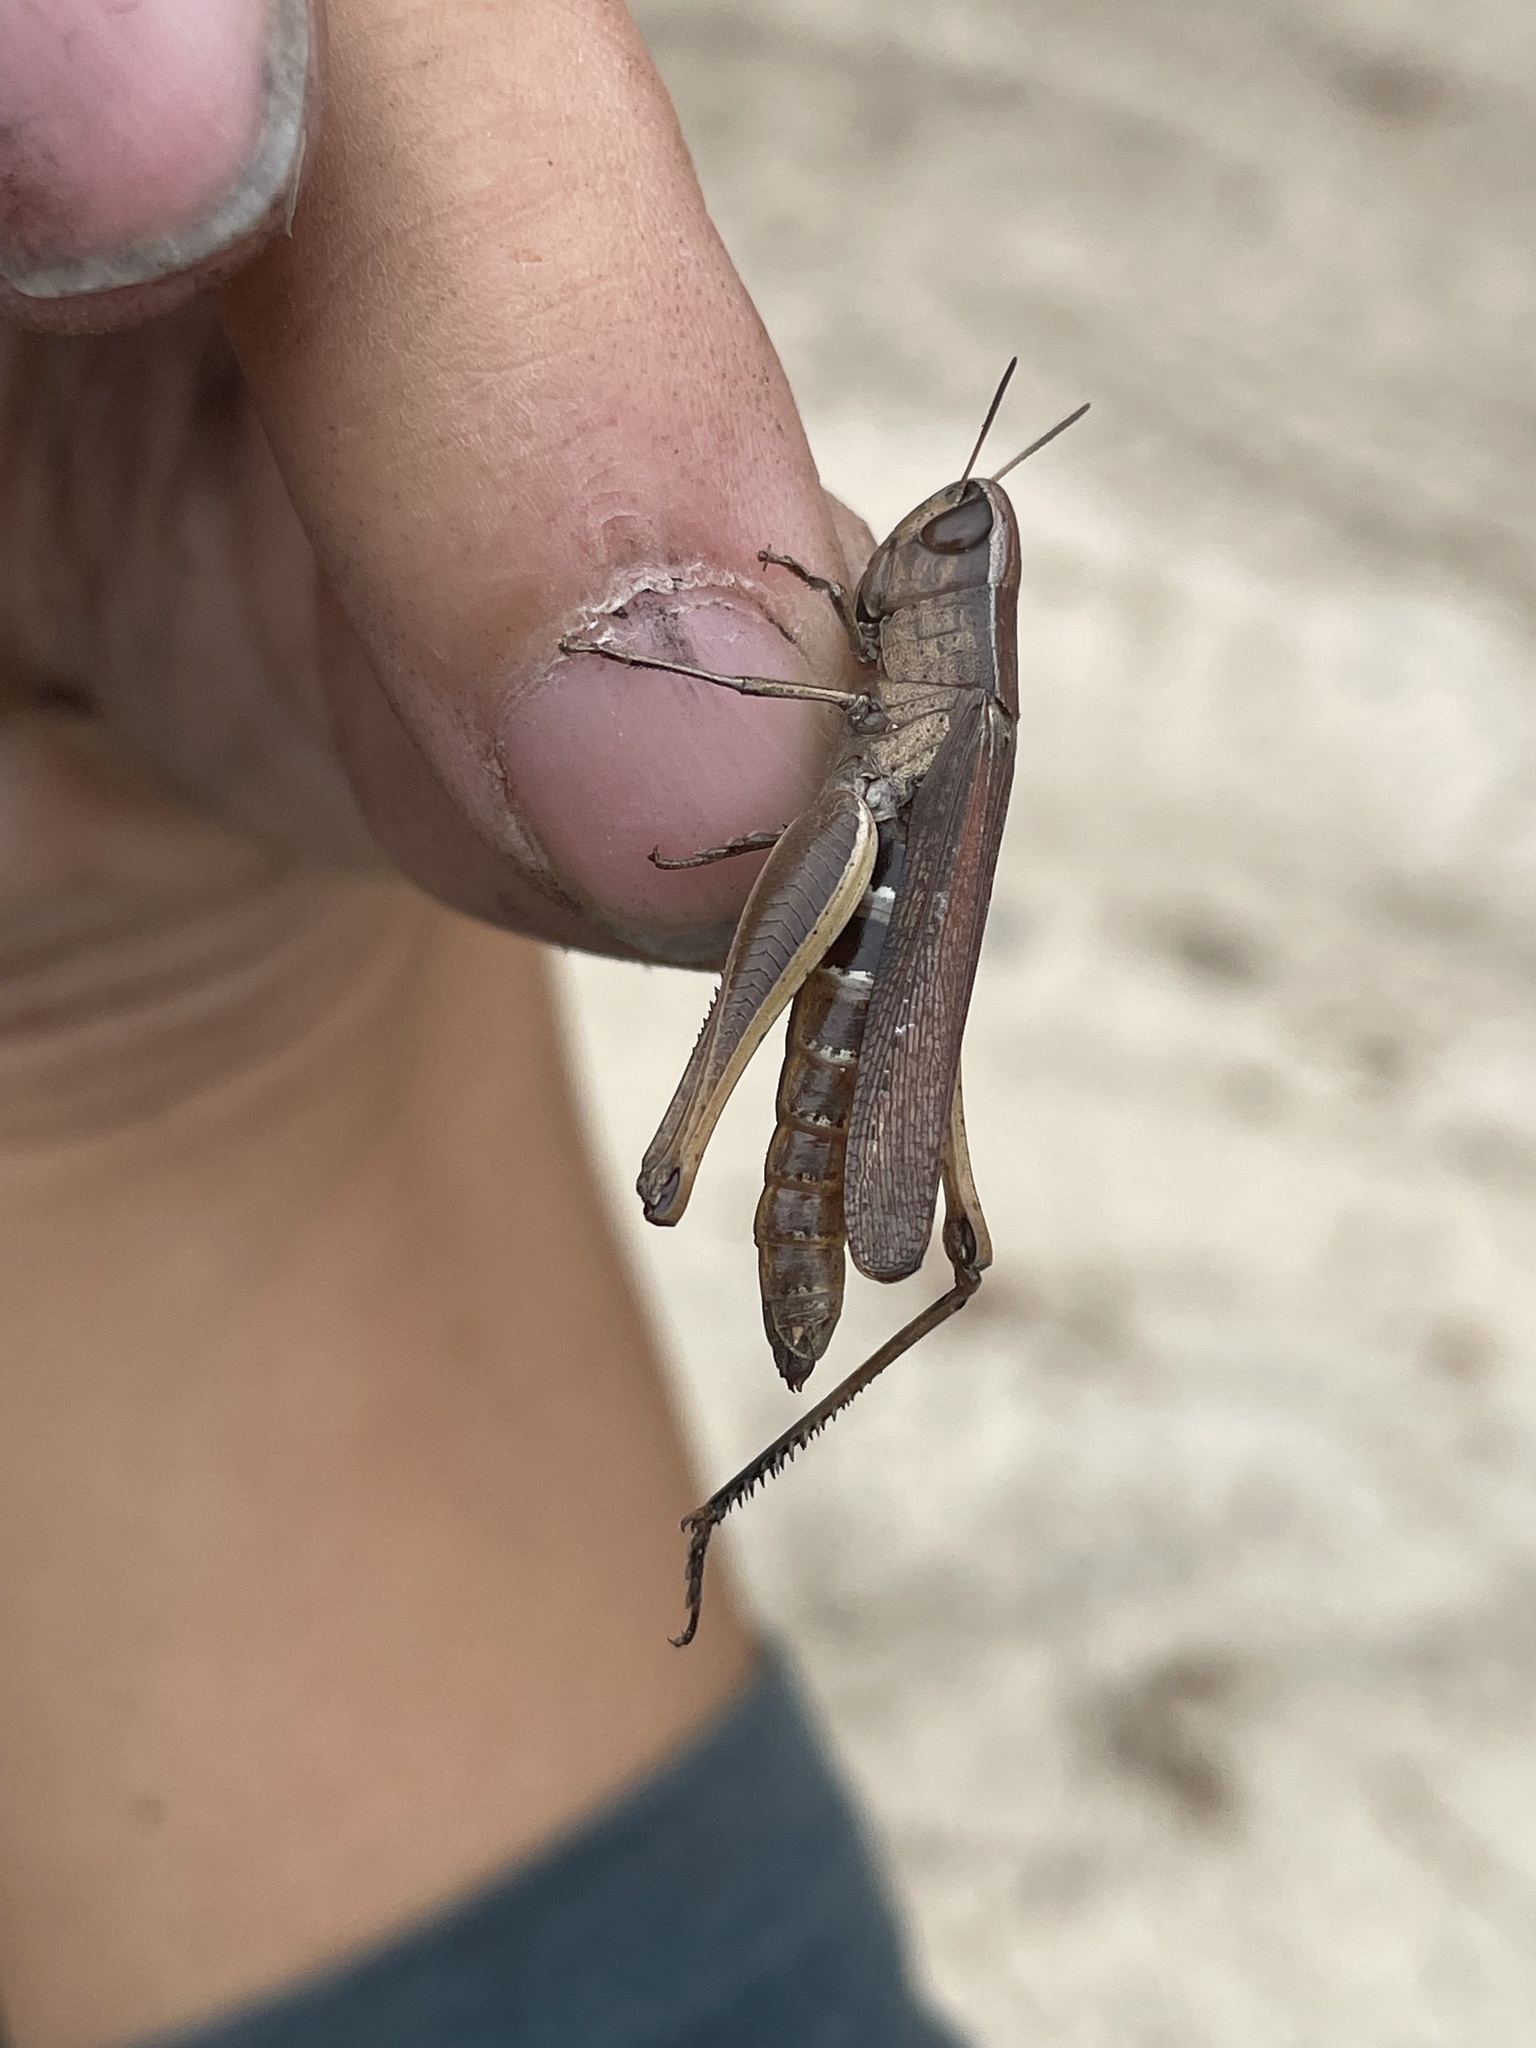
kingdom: Animalia
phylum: Arthropoda
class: Insecta
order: Orthoptera
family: Acrididae
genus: Amblytropidia
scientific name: Amblytropidia mysteca
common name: Brown winter grasshopper
